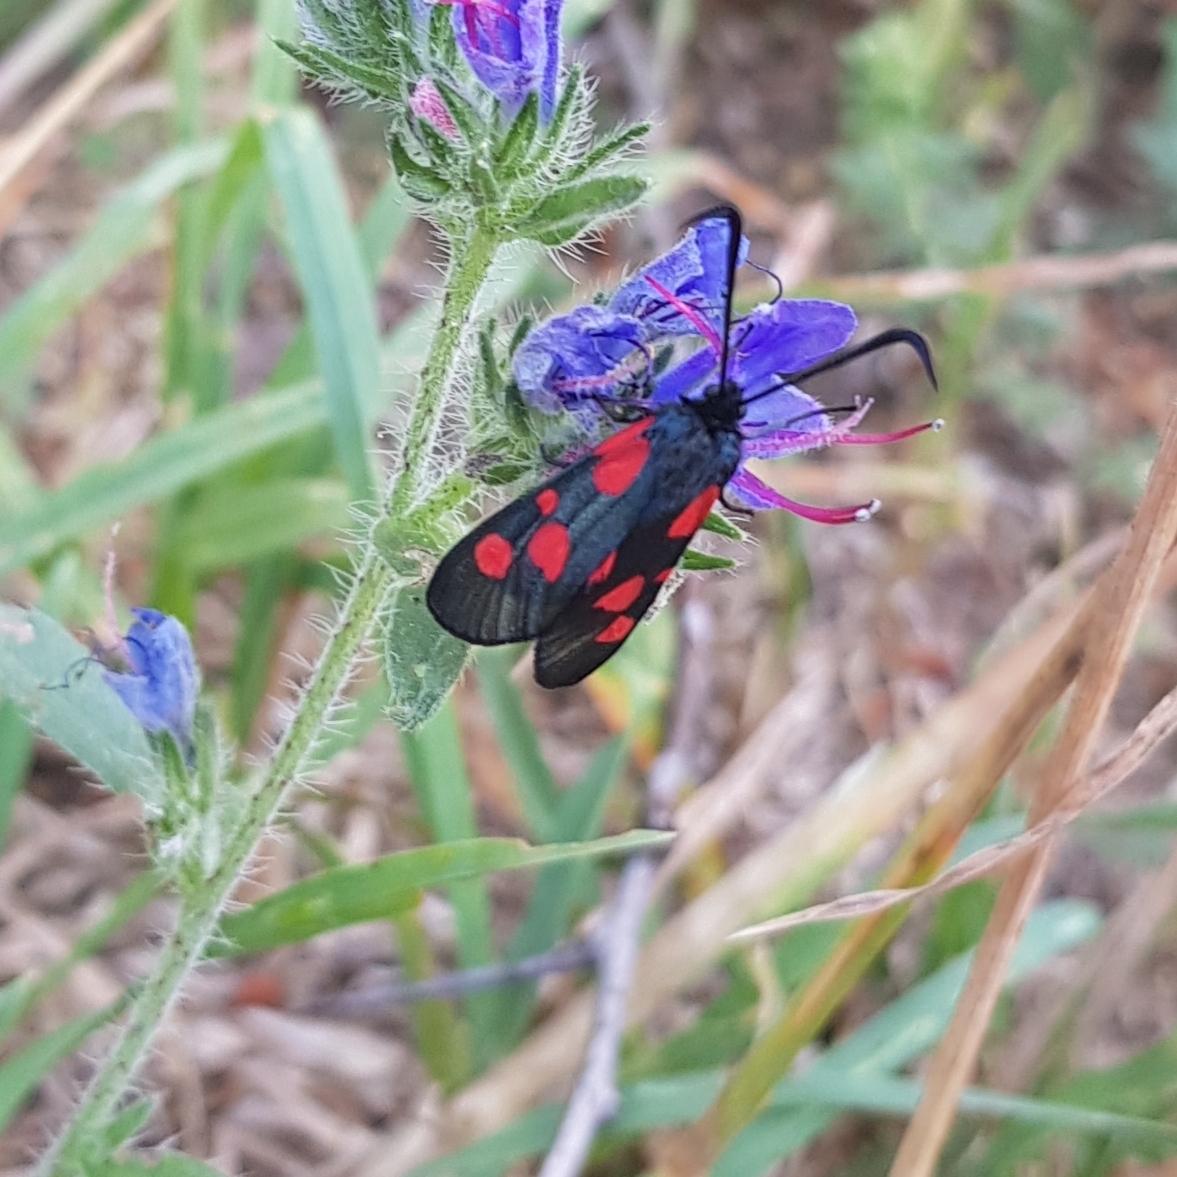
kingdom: Animalia
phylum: Arthropoda
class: Insecta
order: Lepidoptera
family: Zygaenidae
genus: Zygaena
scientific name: Zygaena lonicerae
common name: Narrow-bordered five-spot burnet
